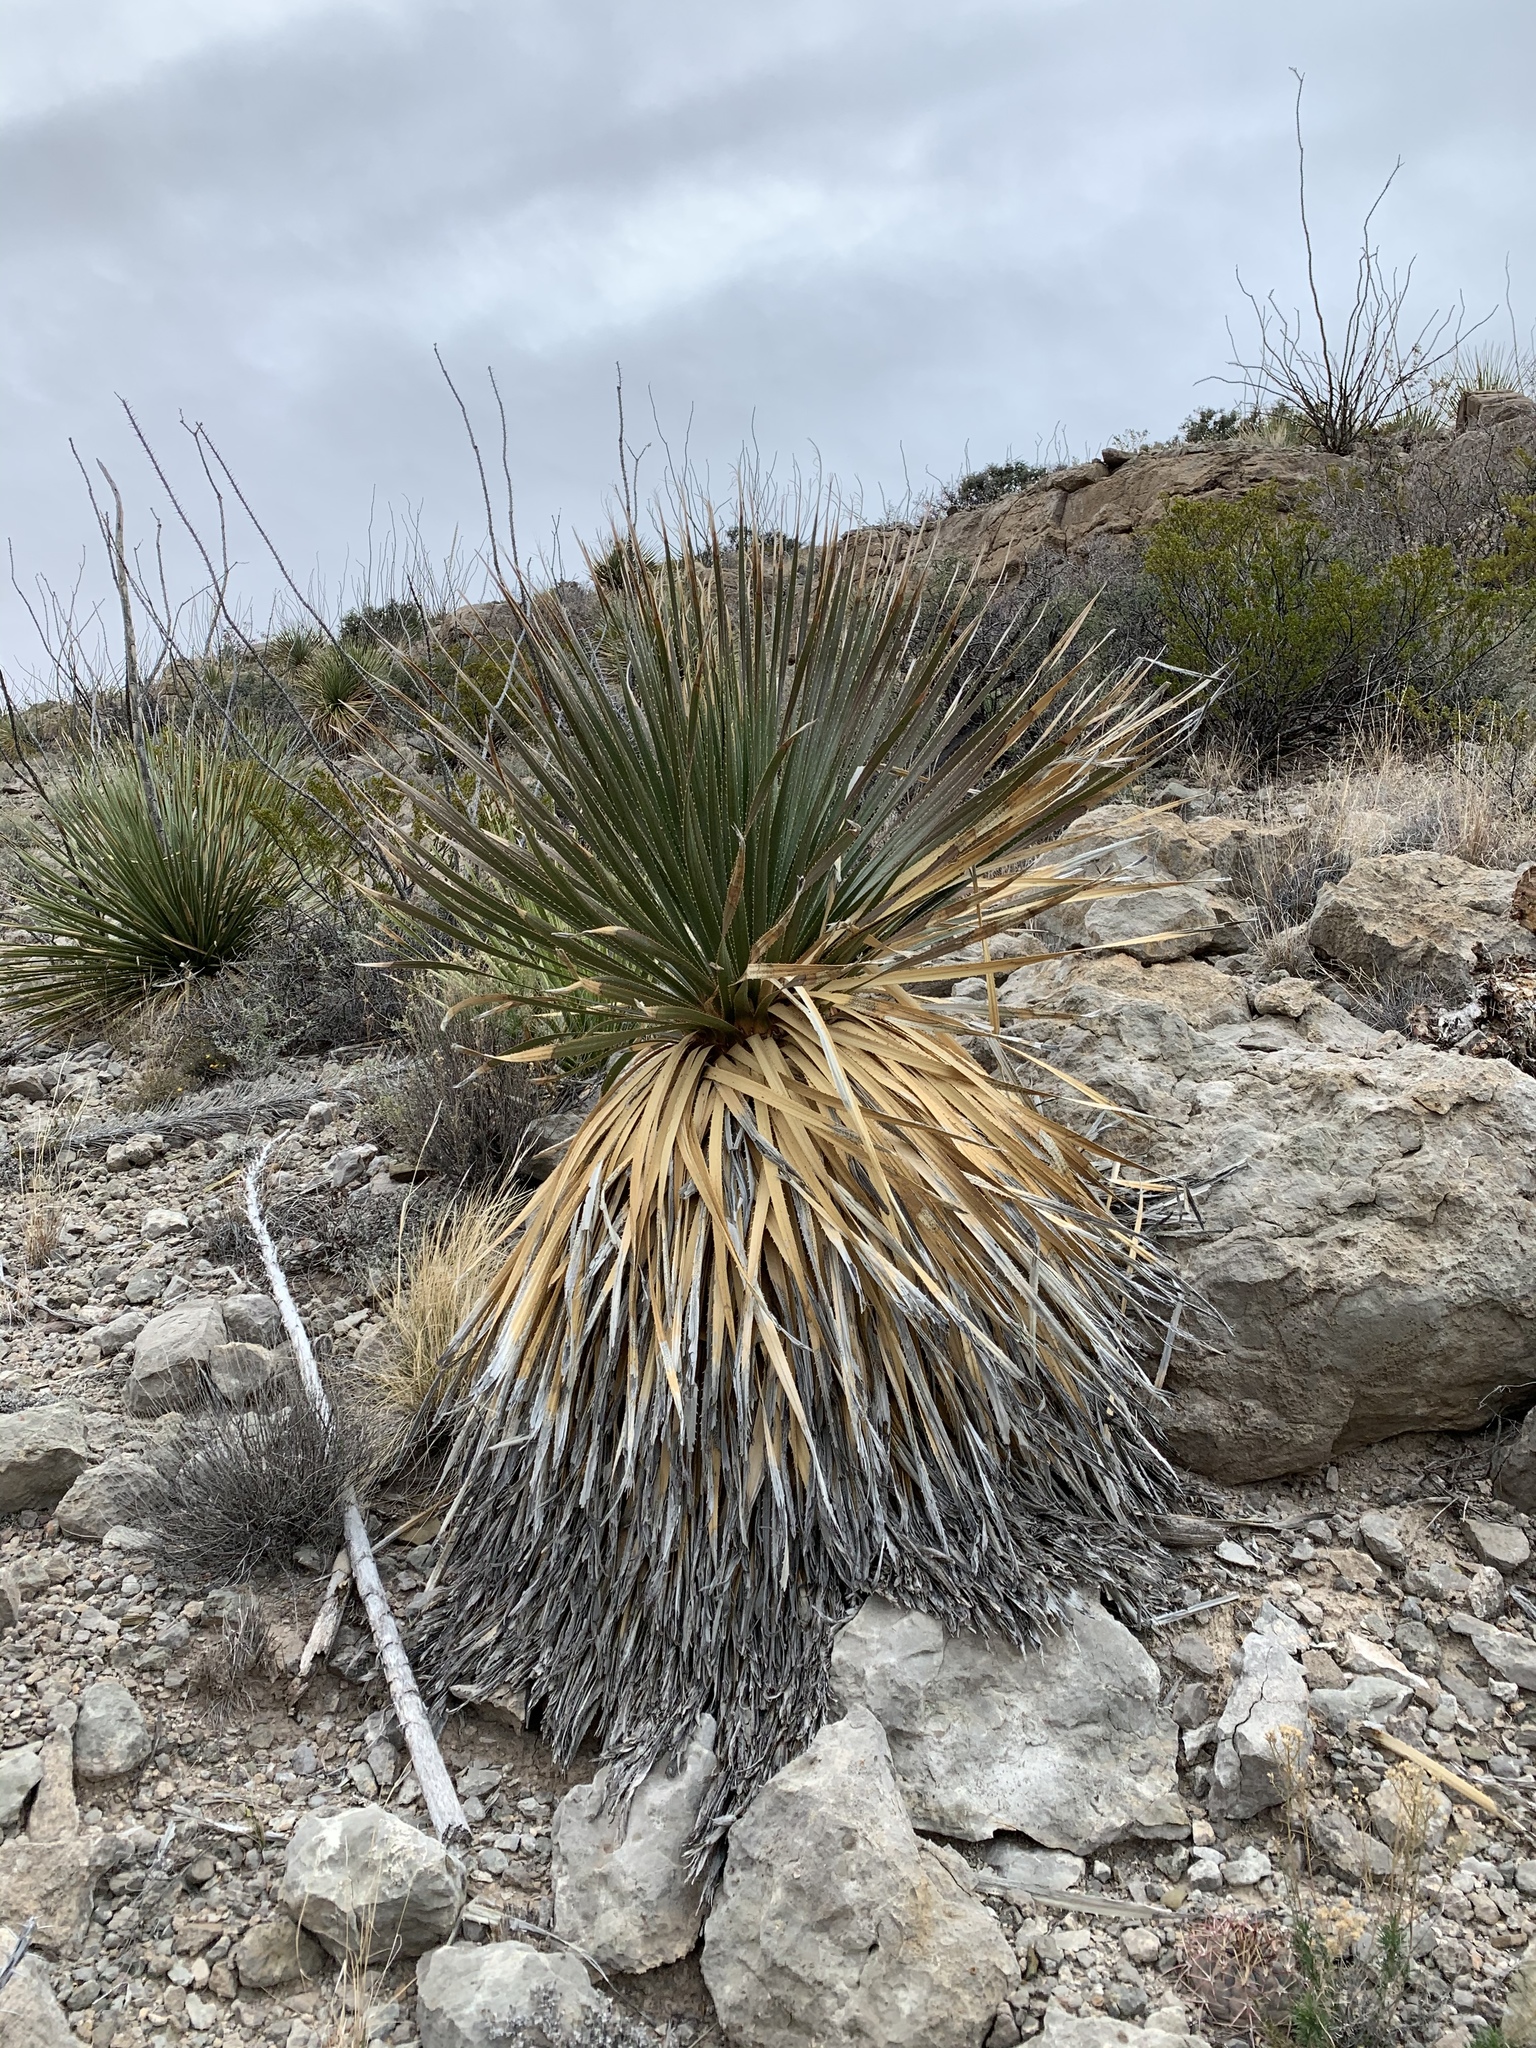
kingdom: Plantae
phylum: Tracheophyta
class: Liliopsida
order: Asparagales
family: Asparagaceae
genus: Dasylirion
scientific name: Dasylirion wheeleri
